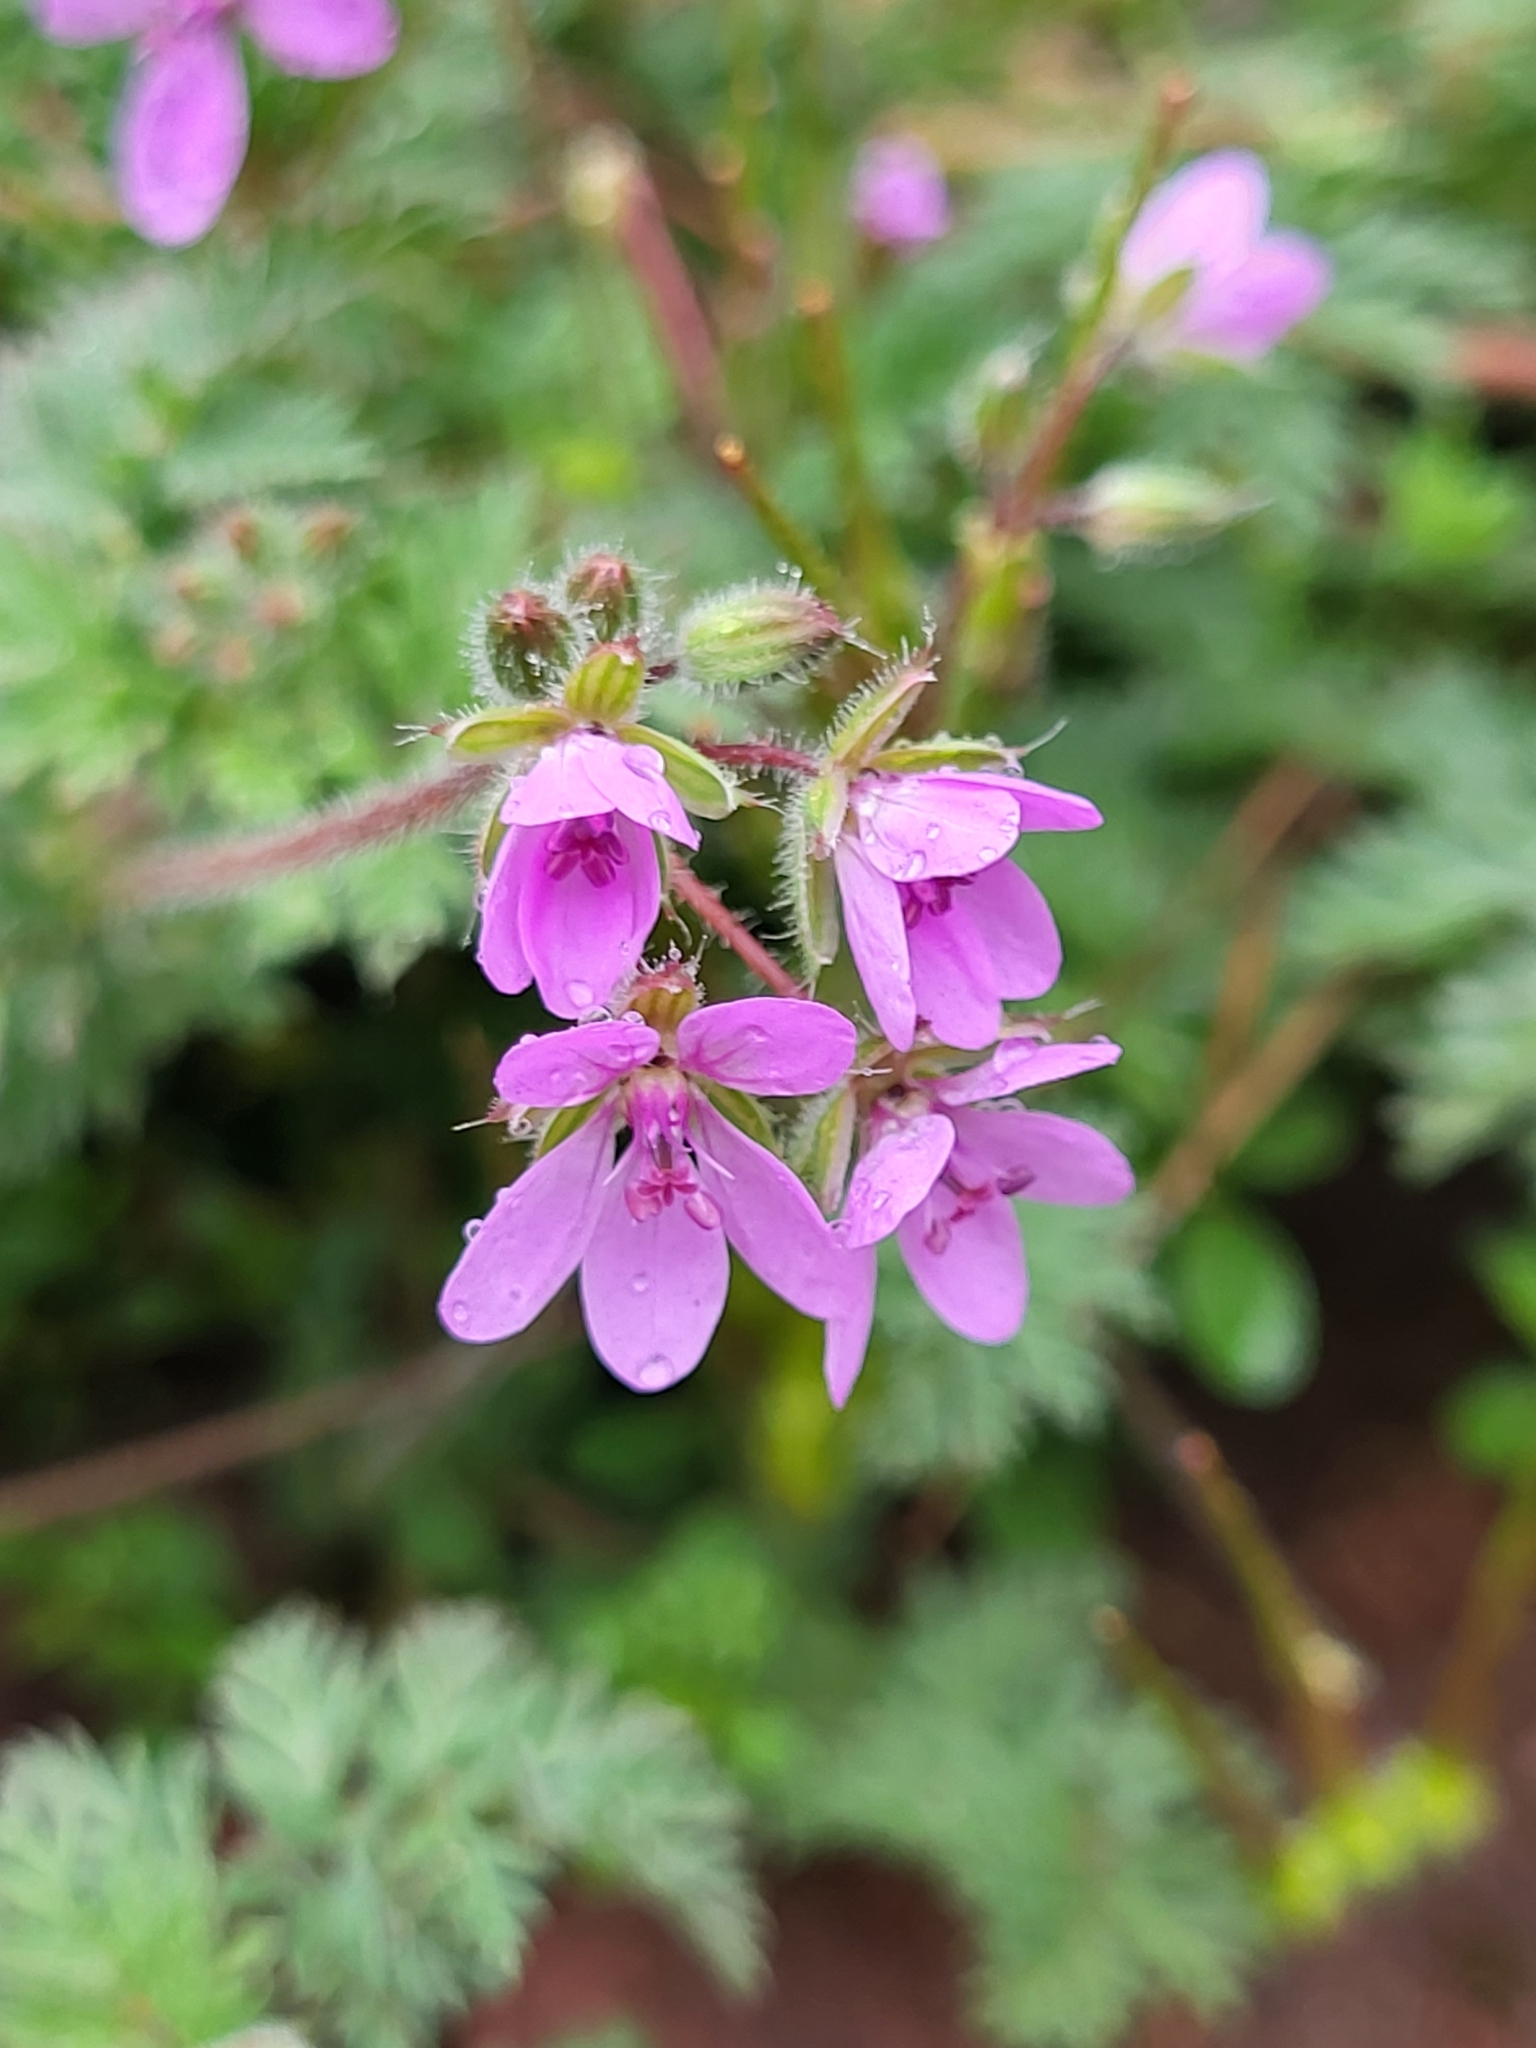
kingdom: Plantae
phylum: Tracheophyta
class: Magnoliopsida
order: Geraniales
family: Geraniaceae
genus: Erodium
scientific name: Erodium cicutarium
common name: Common stork's-bill
